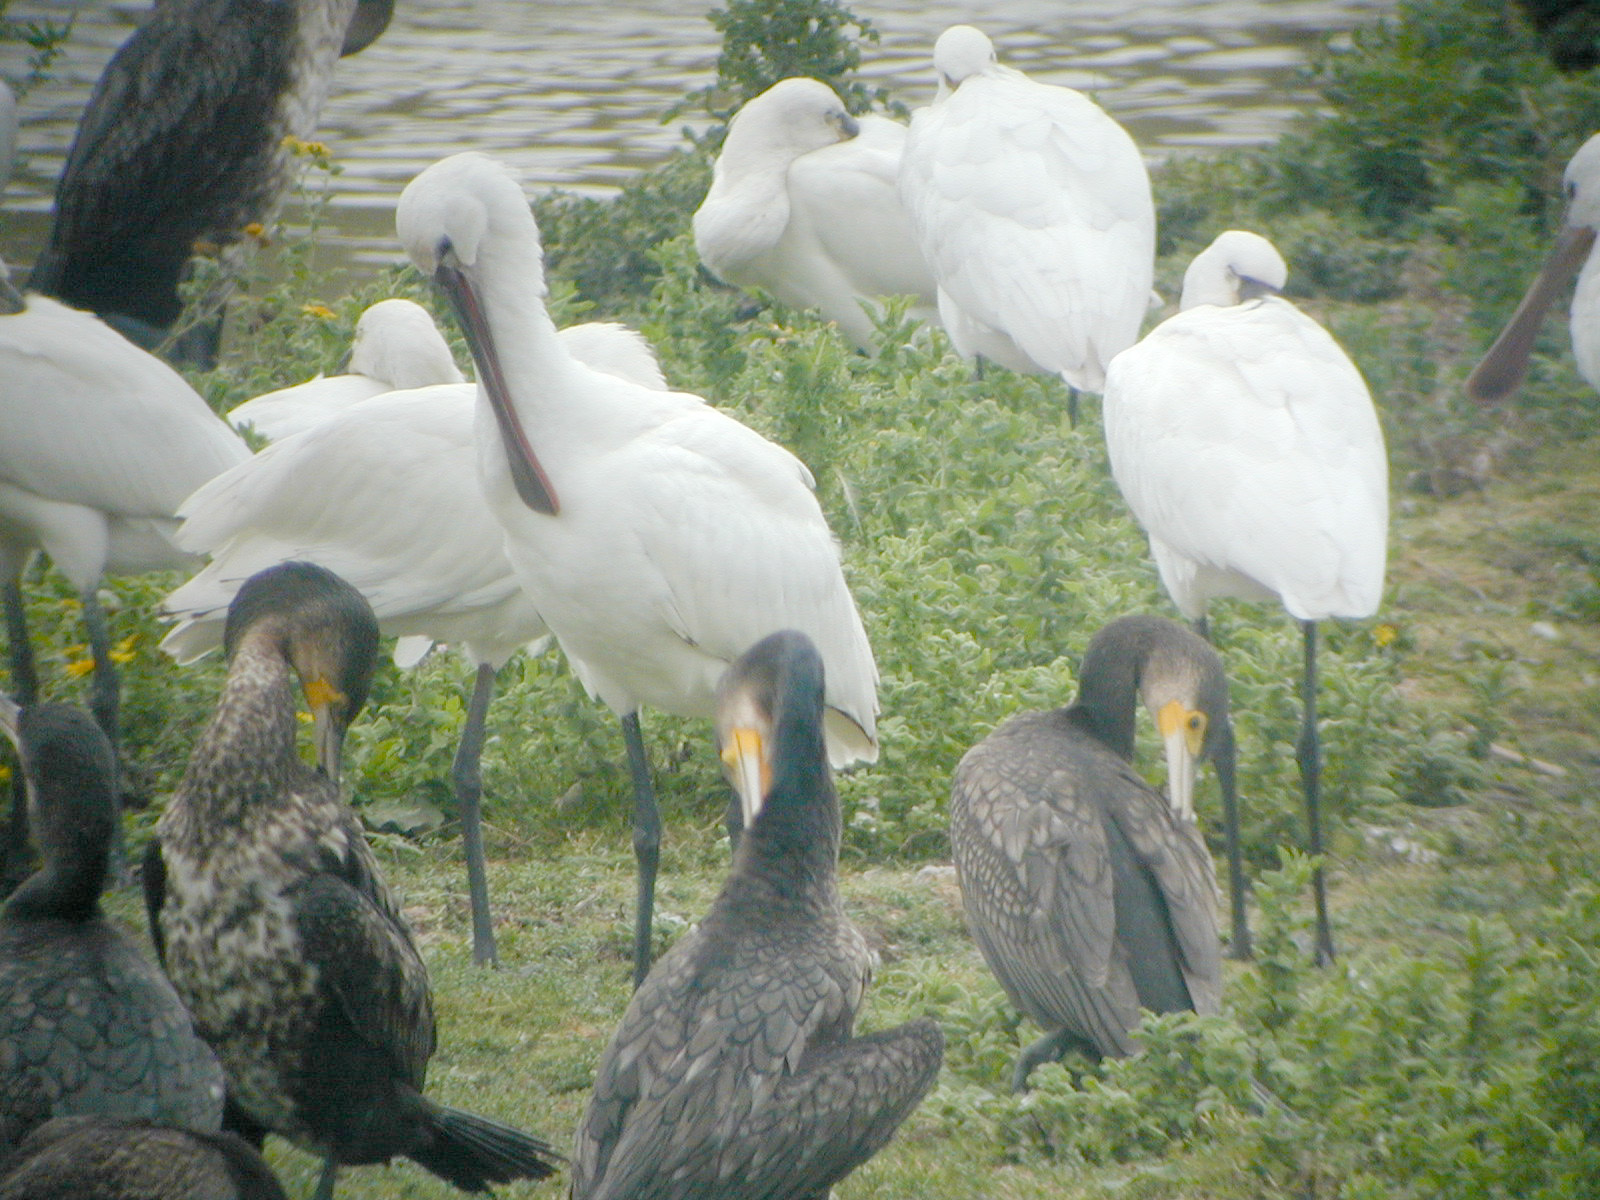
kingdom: Animalia
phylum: Chordata
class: Aves
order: Pelecaniformes
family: Threskiornithidae
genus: Platalea
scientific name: Platalea leucorodia
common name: Eurasian spoonbill
